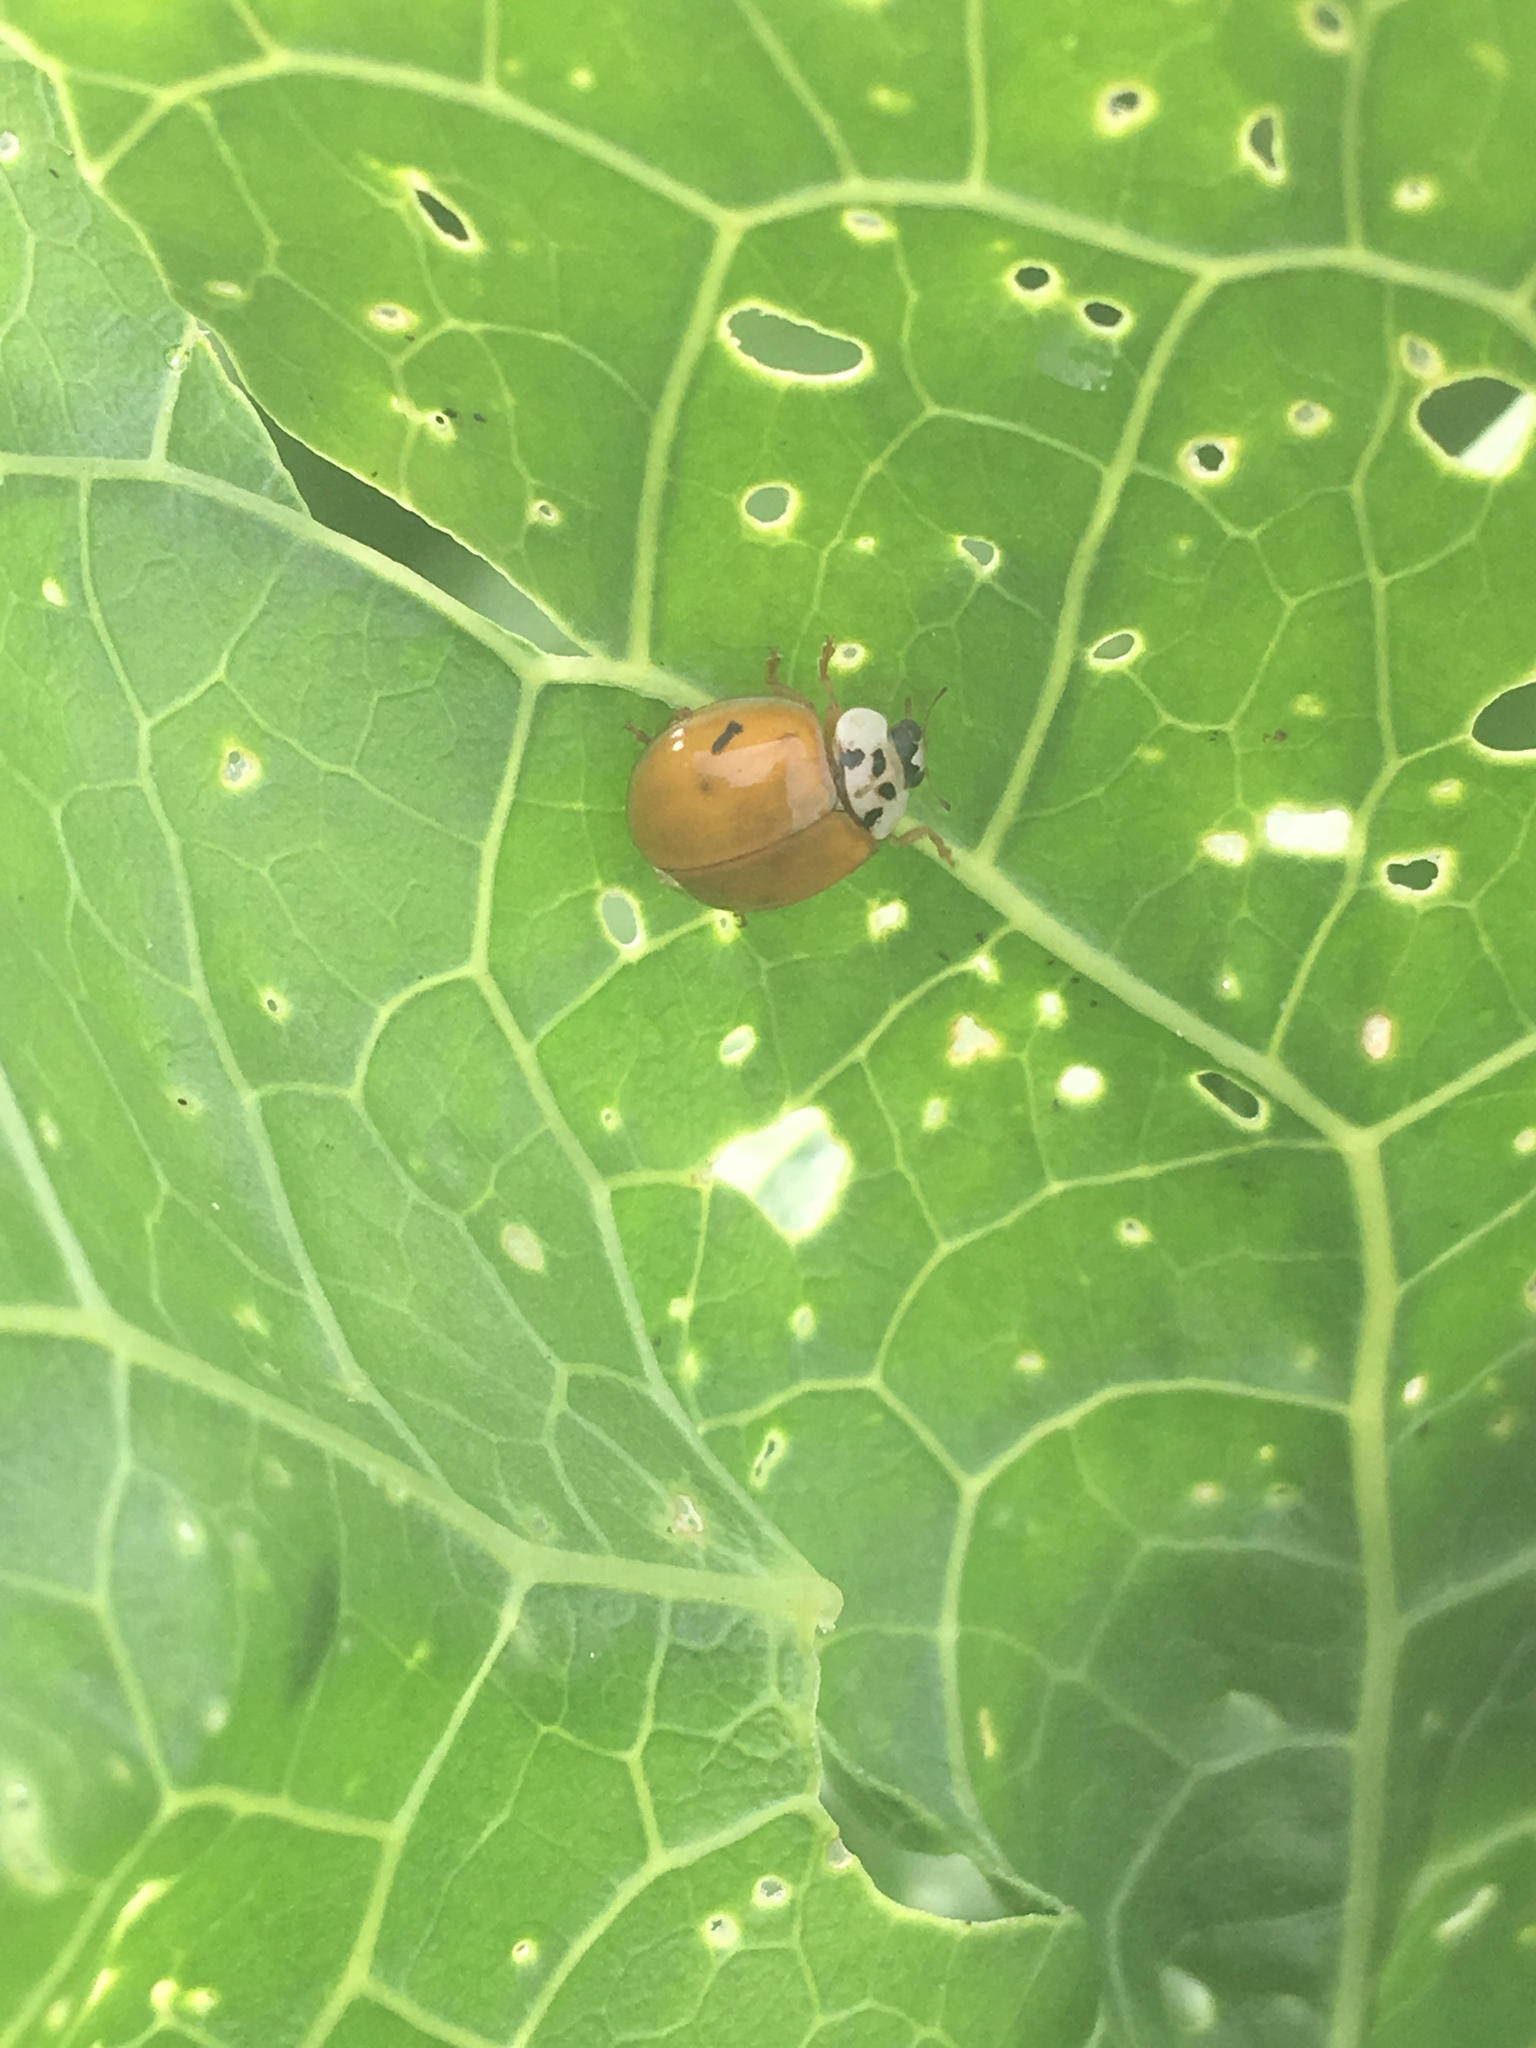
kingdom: Animalia
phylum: Arthropoda
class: Insecta
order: Coleoptera
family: Coccinellidae
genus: Harmonia
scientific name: Harmonia axyridis
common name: Harlequin ladybird
